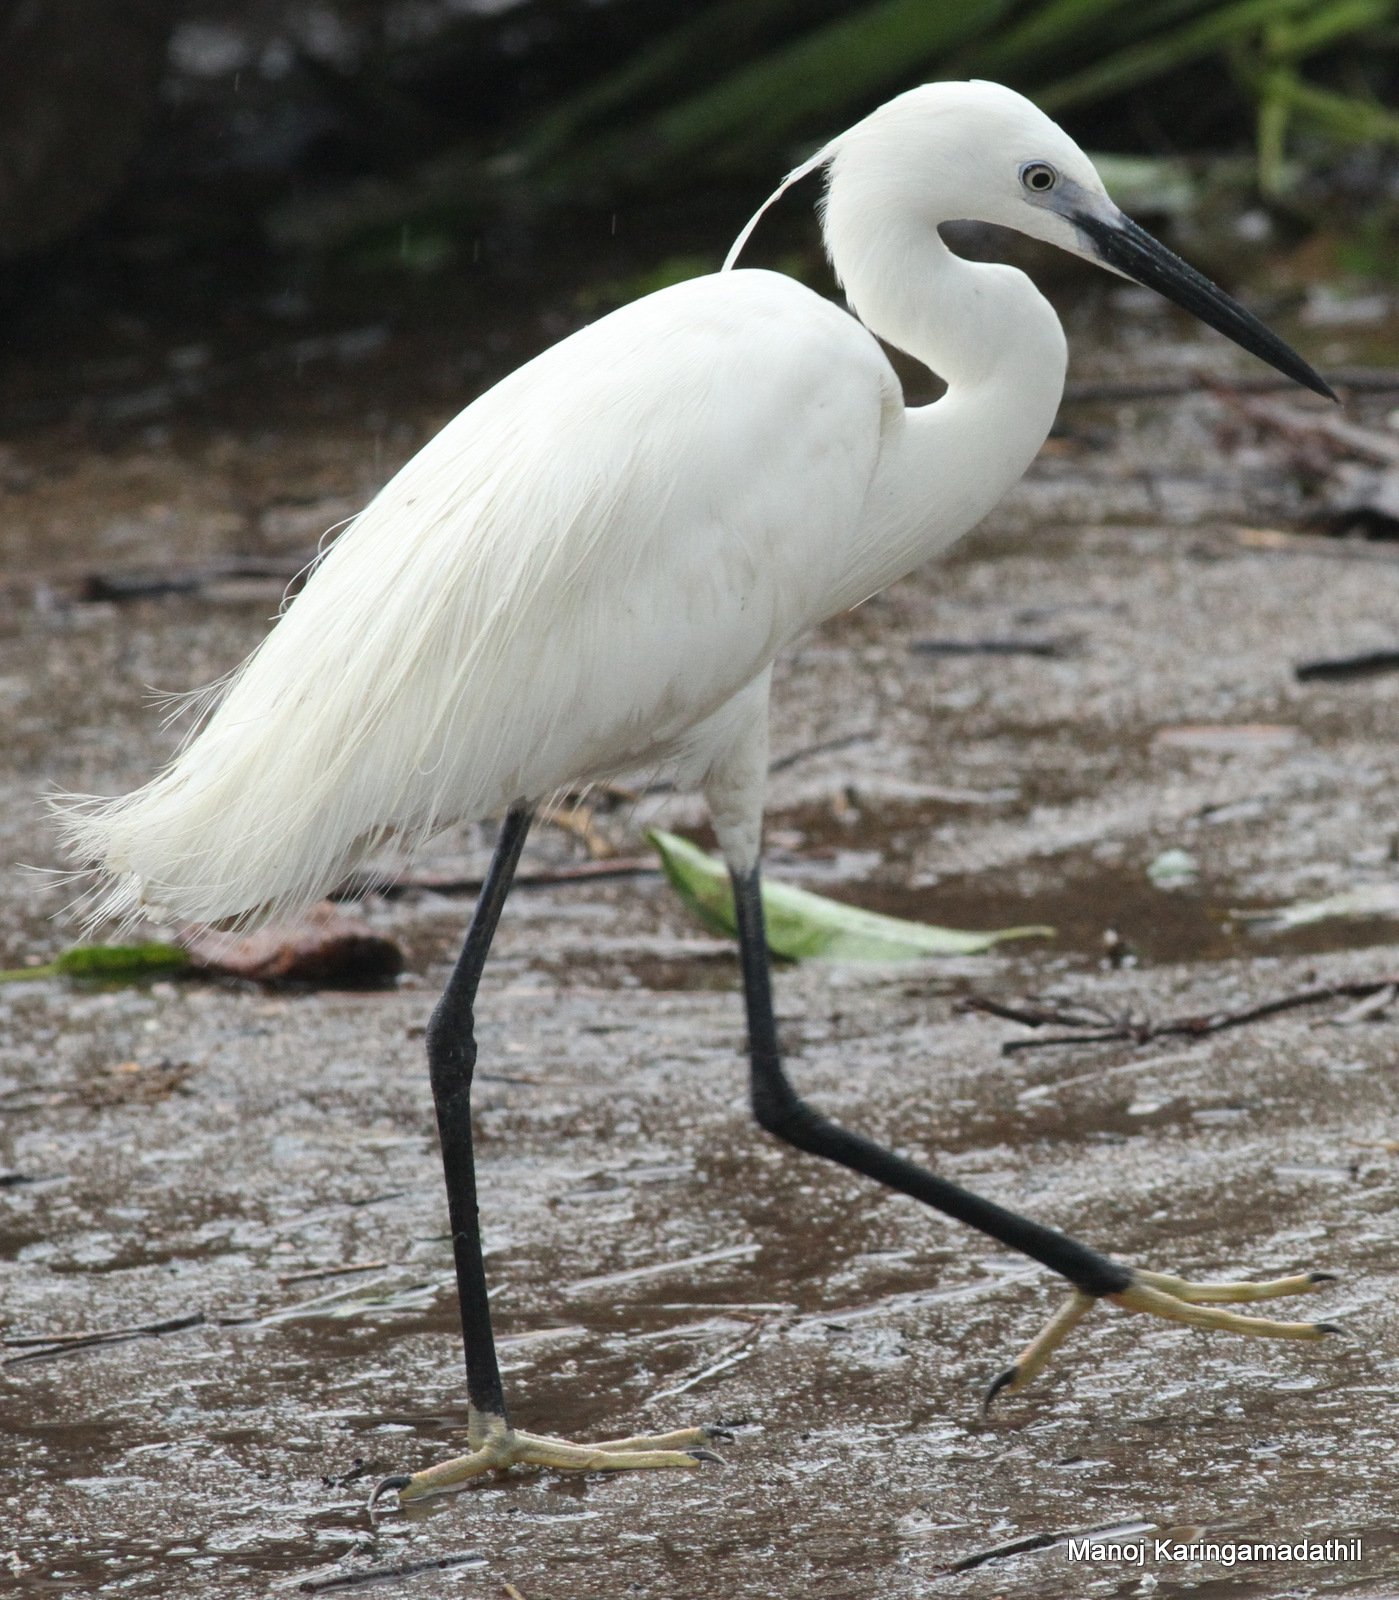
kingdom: Animalia
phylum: Chordata
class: Aves
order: Pelecaniformes
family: Ardeidae
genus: Egretta
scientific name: Egretta garzetta
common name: Little egret
